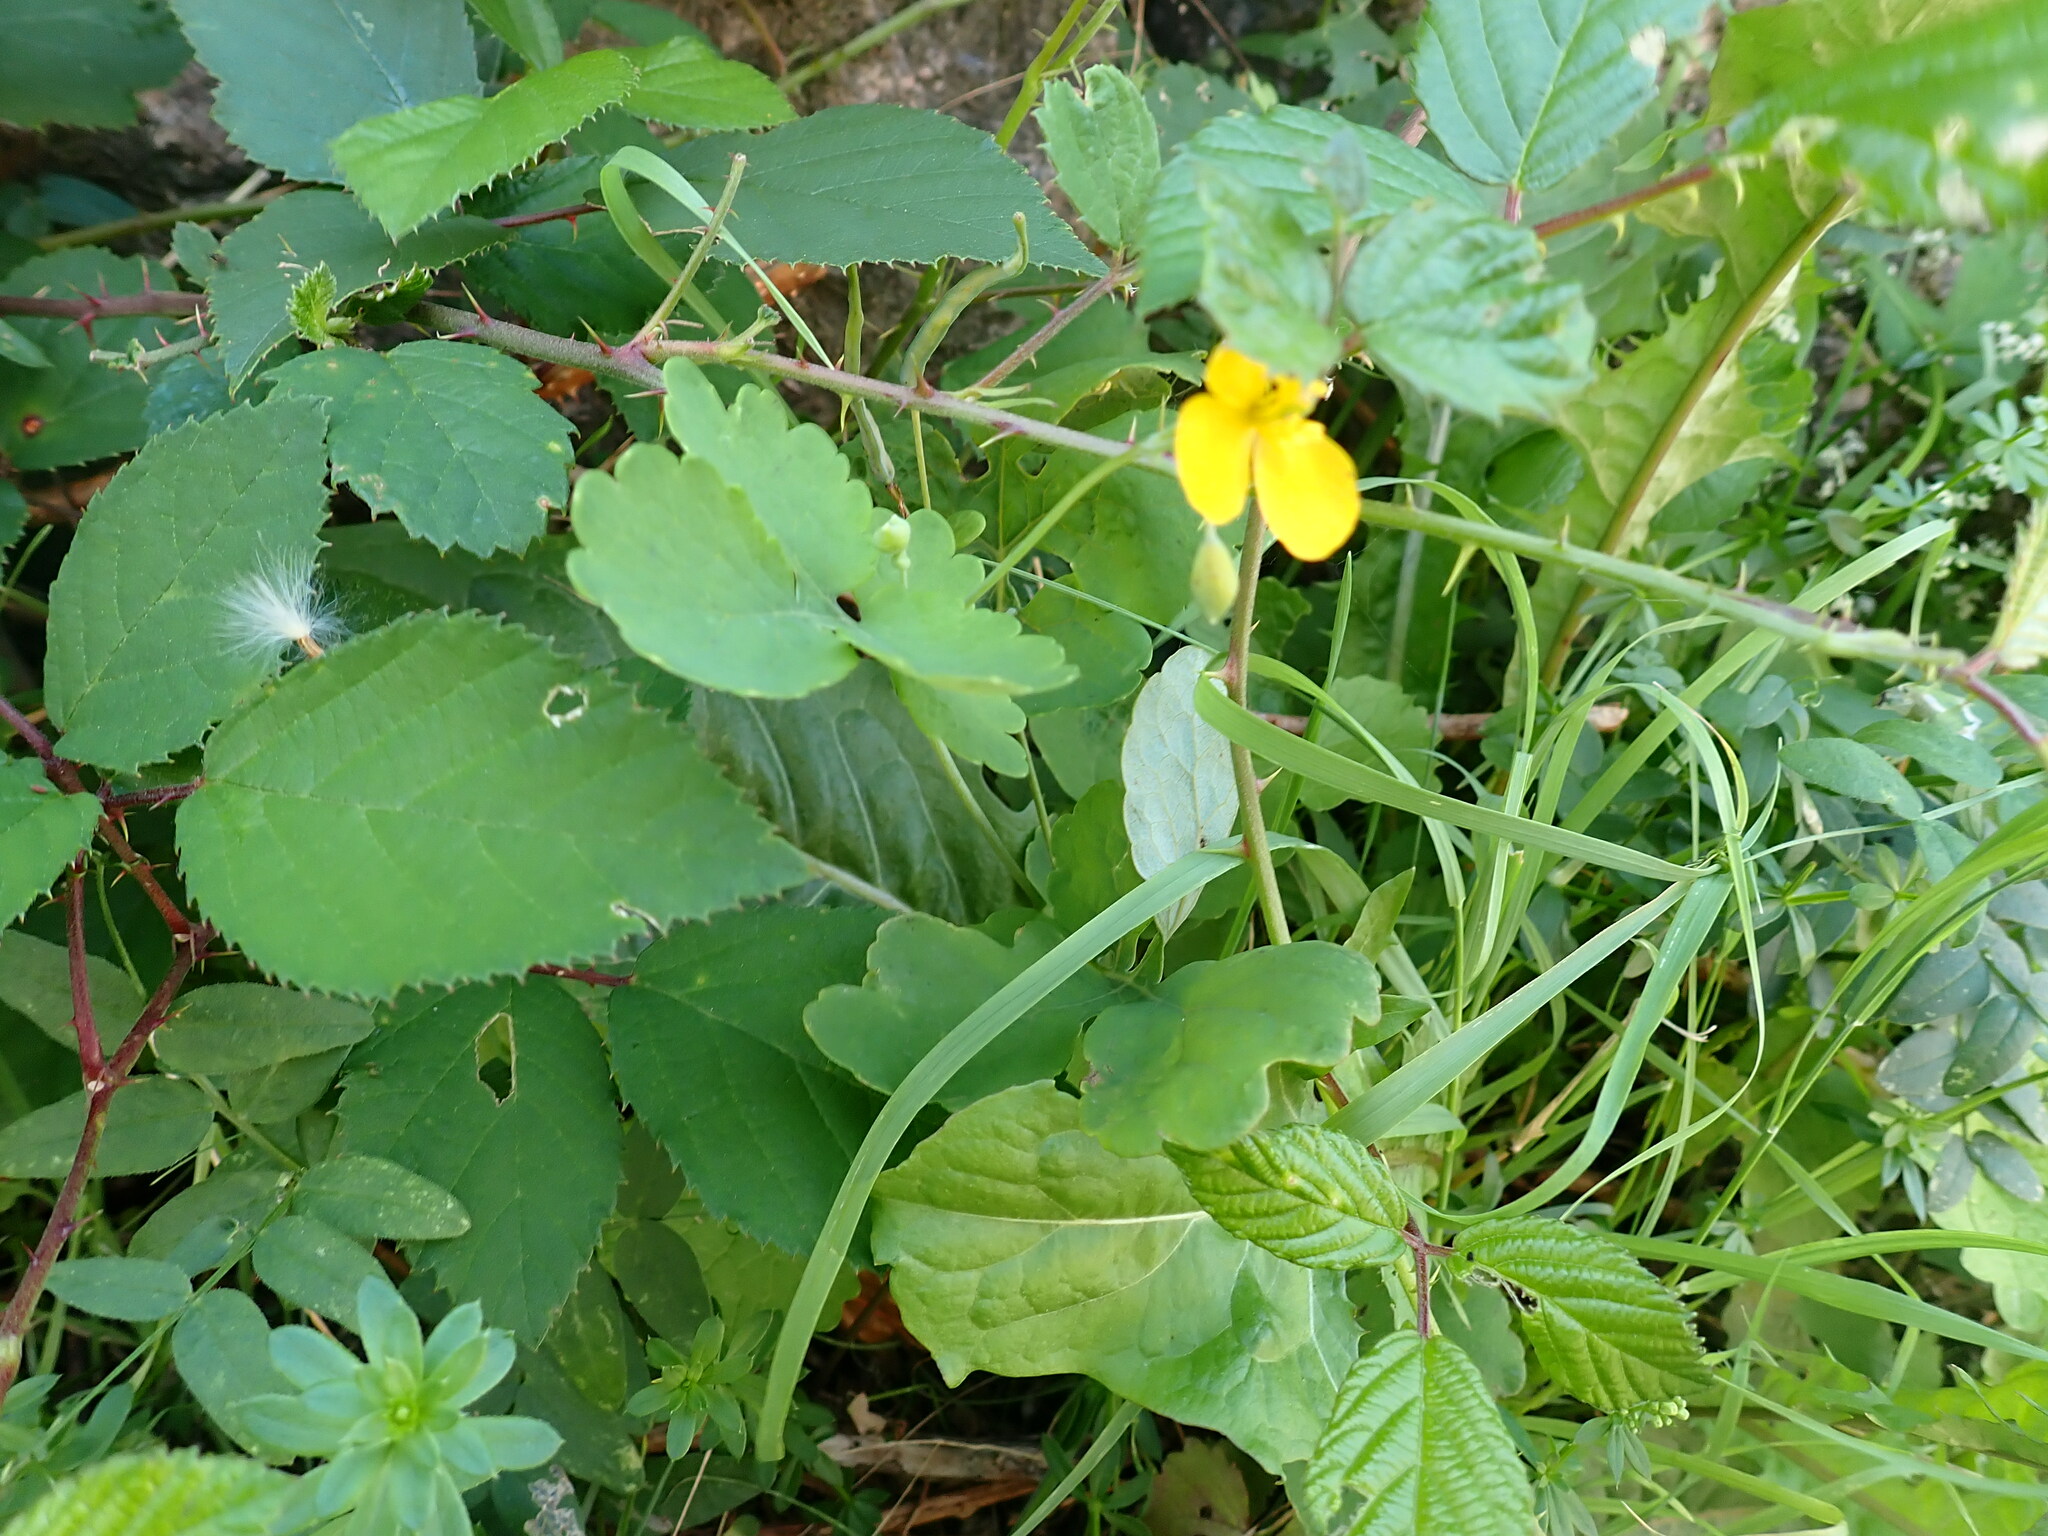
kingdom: Plantae
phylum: Tracheophyta
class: Magnoliopsida
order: Ranunculales
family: Papaveraceae
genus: Chelidonium
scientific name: Chelidonium majus
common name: Greater celandine
